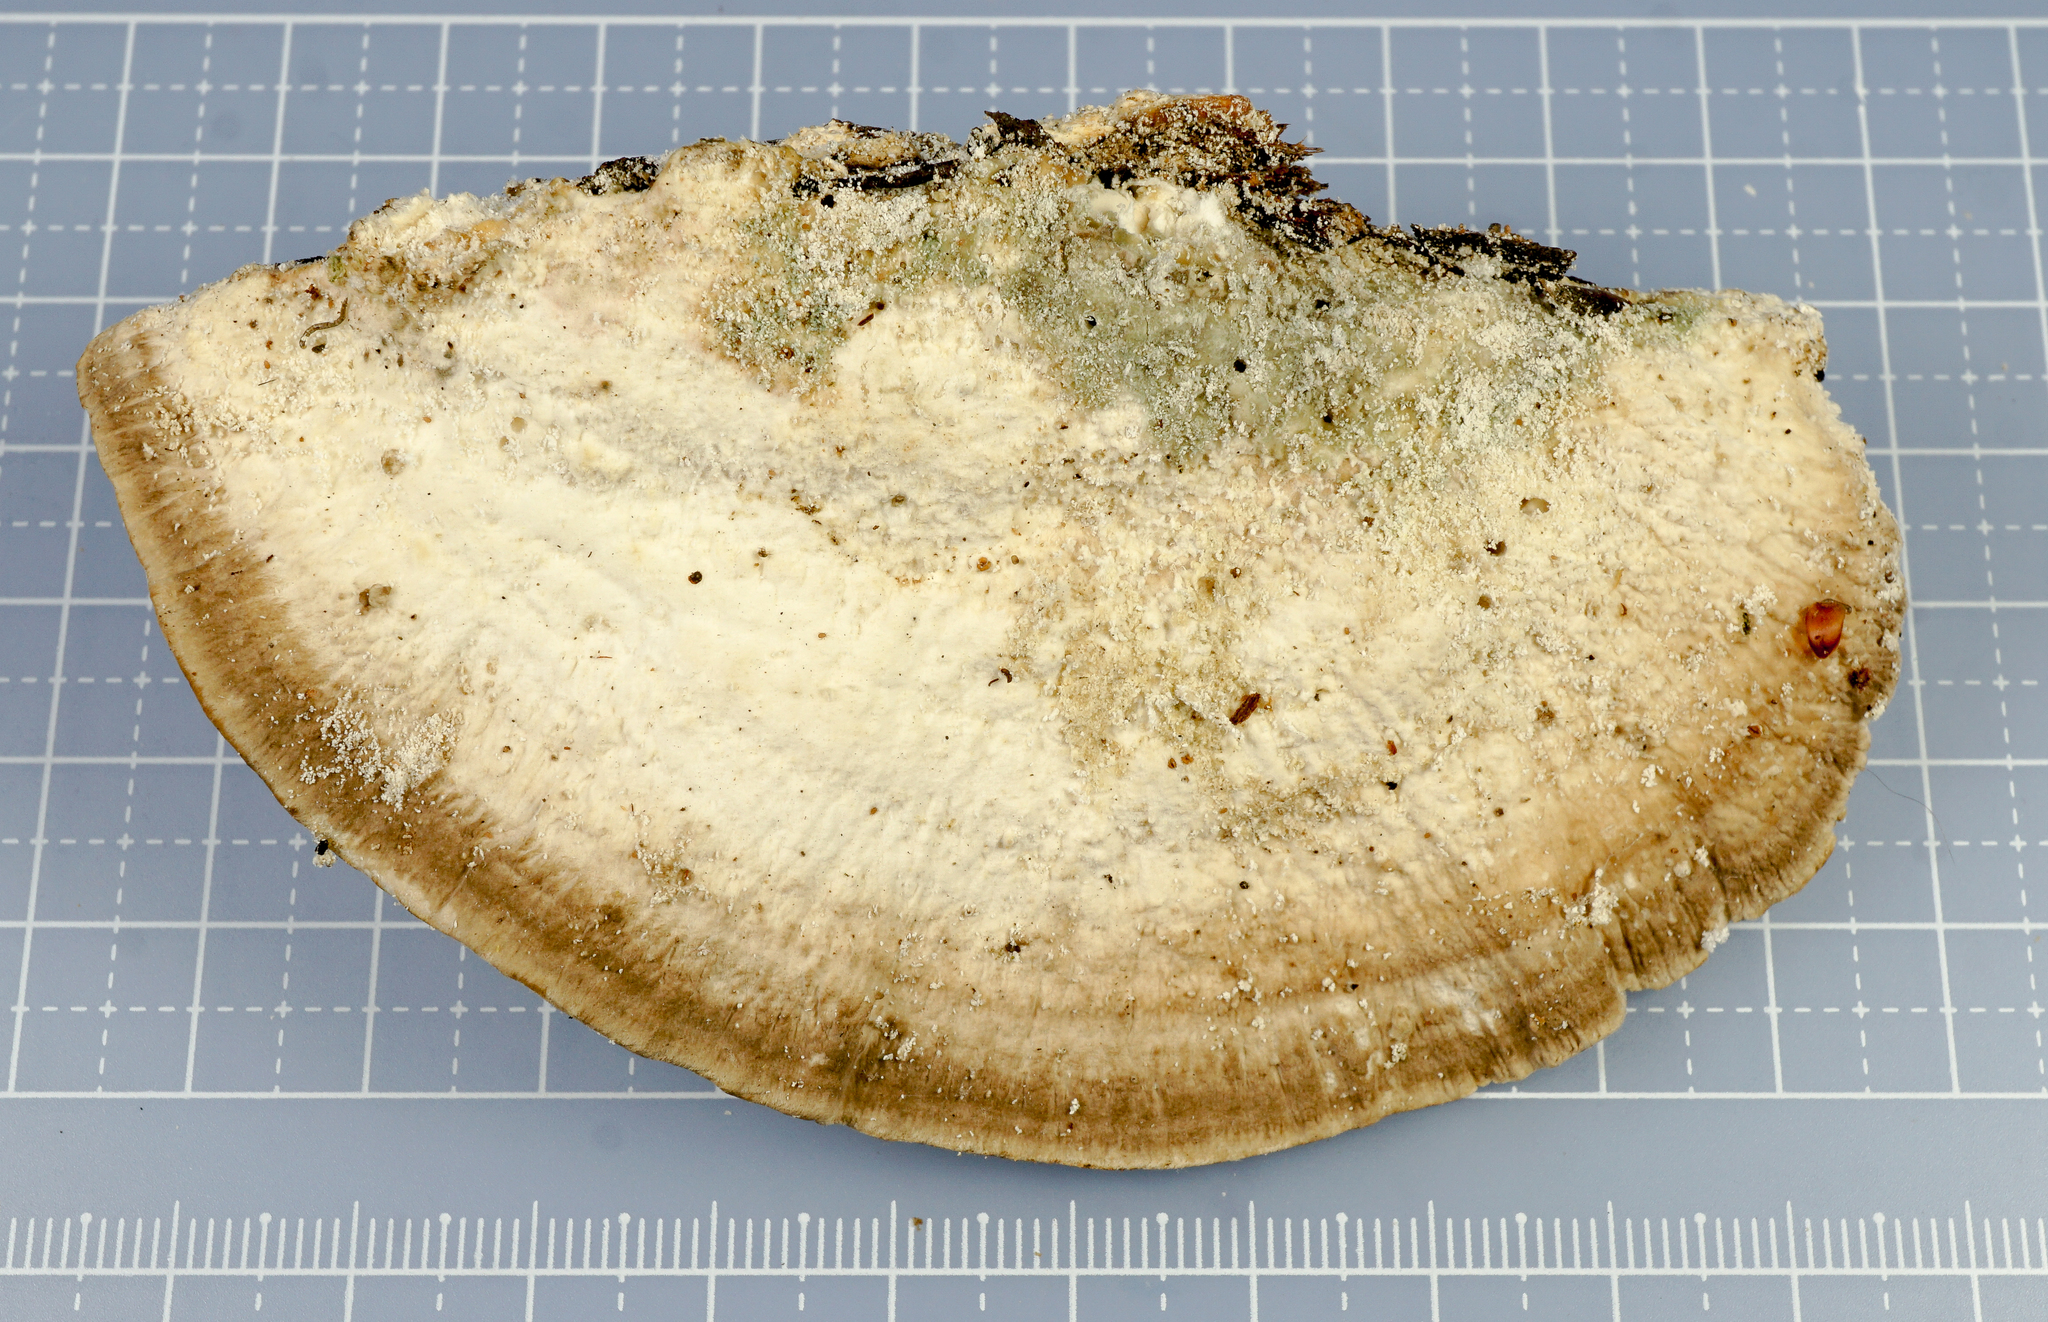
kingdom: Fungi
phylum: Basidiomycota
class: Agaricomycetes
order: Polyporales
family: Polyporaceae
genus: Trametes
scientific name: Trametes hirsuta
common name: Hairy bracket
